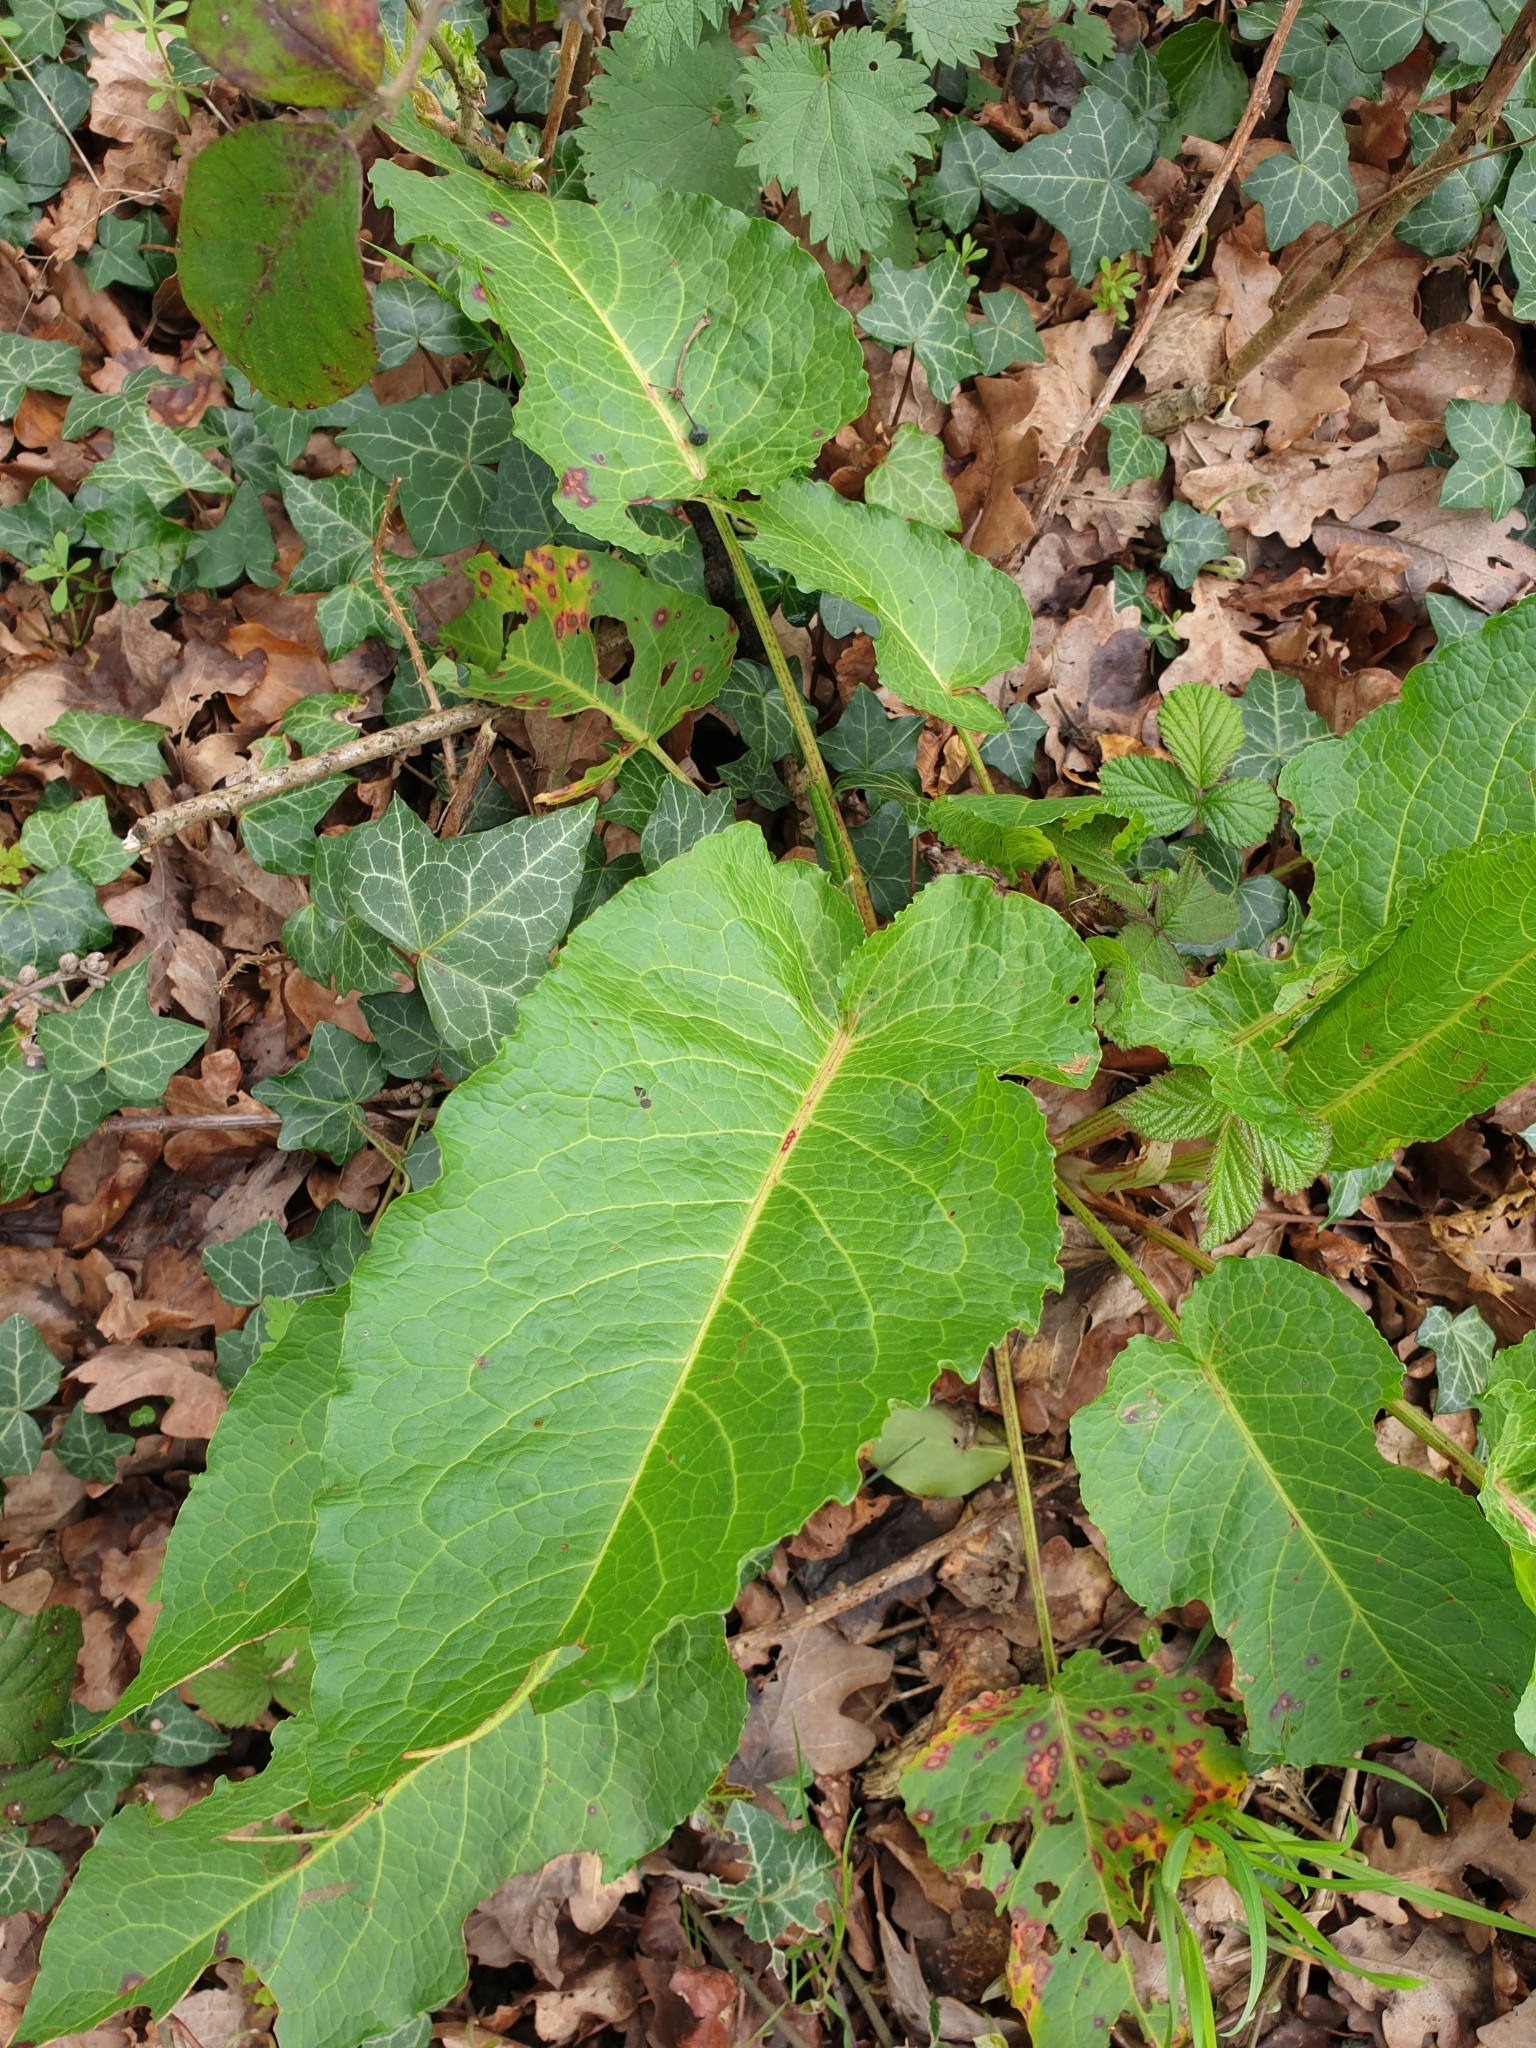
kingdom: Plantae
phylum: Tracheophyta
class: Magnoliopsida
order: Caryophyllales
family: Polygonaceae
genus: Rumex
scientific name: Rumex obtusifolius
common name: Bitter dock
